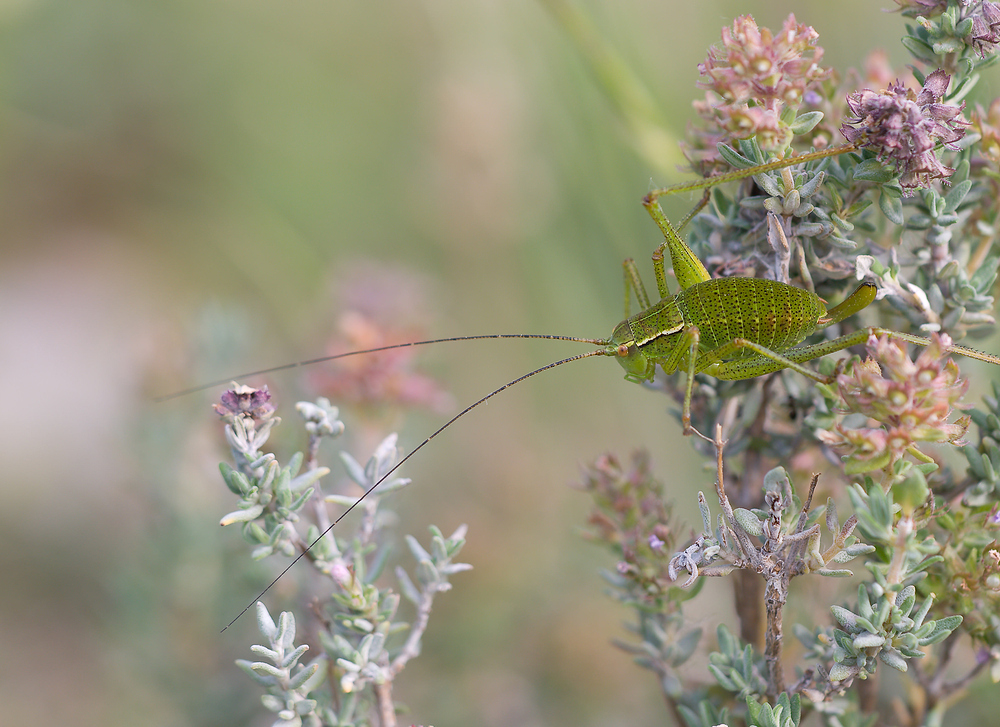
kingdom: Animalia
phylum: Arthropoda
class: Insecta
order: Orthoptera
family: Tettigoniidae
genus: Barbitistes
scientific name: Barbitistes fischeri
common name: Southern saw-tailed bush-cricket
